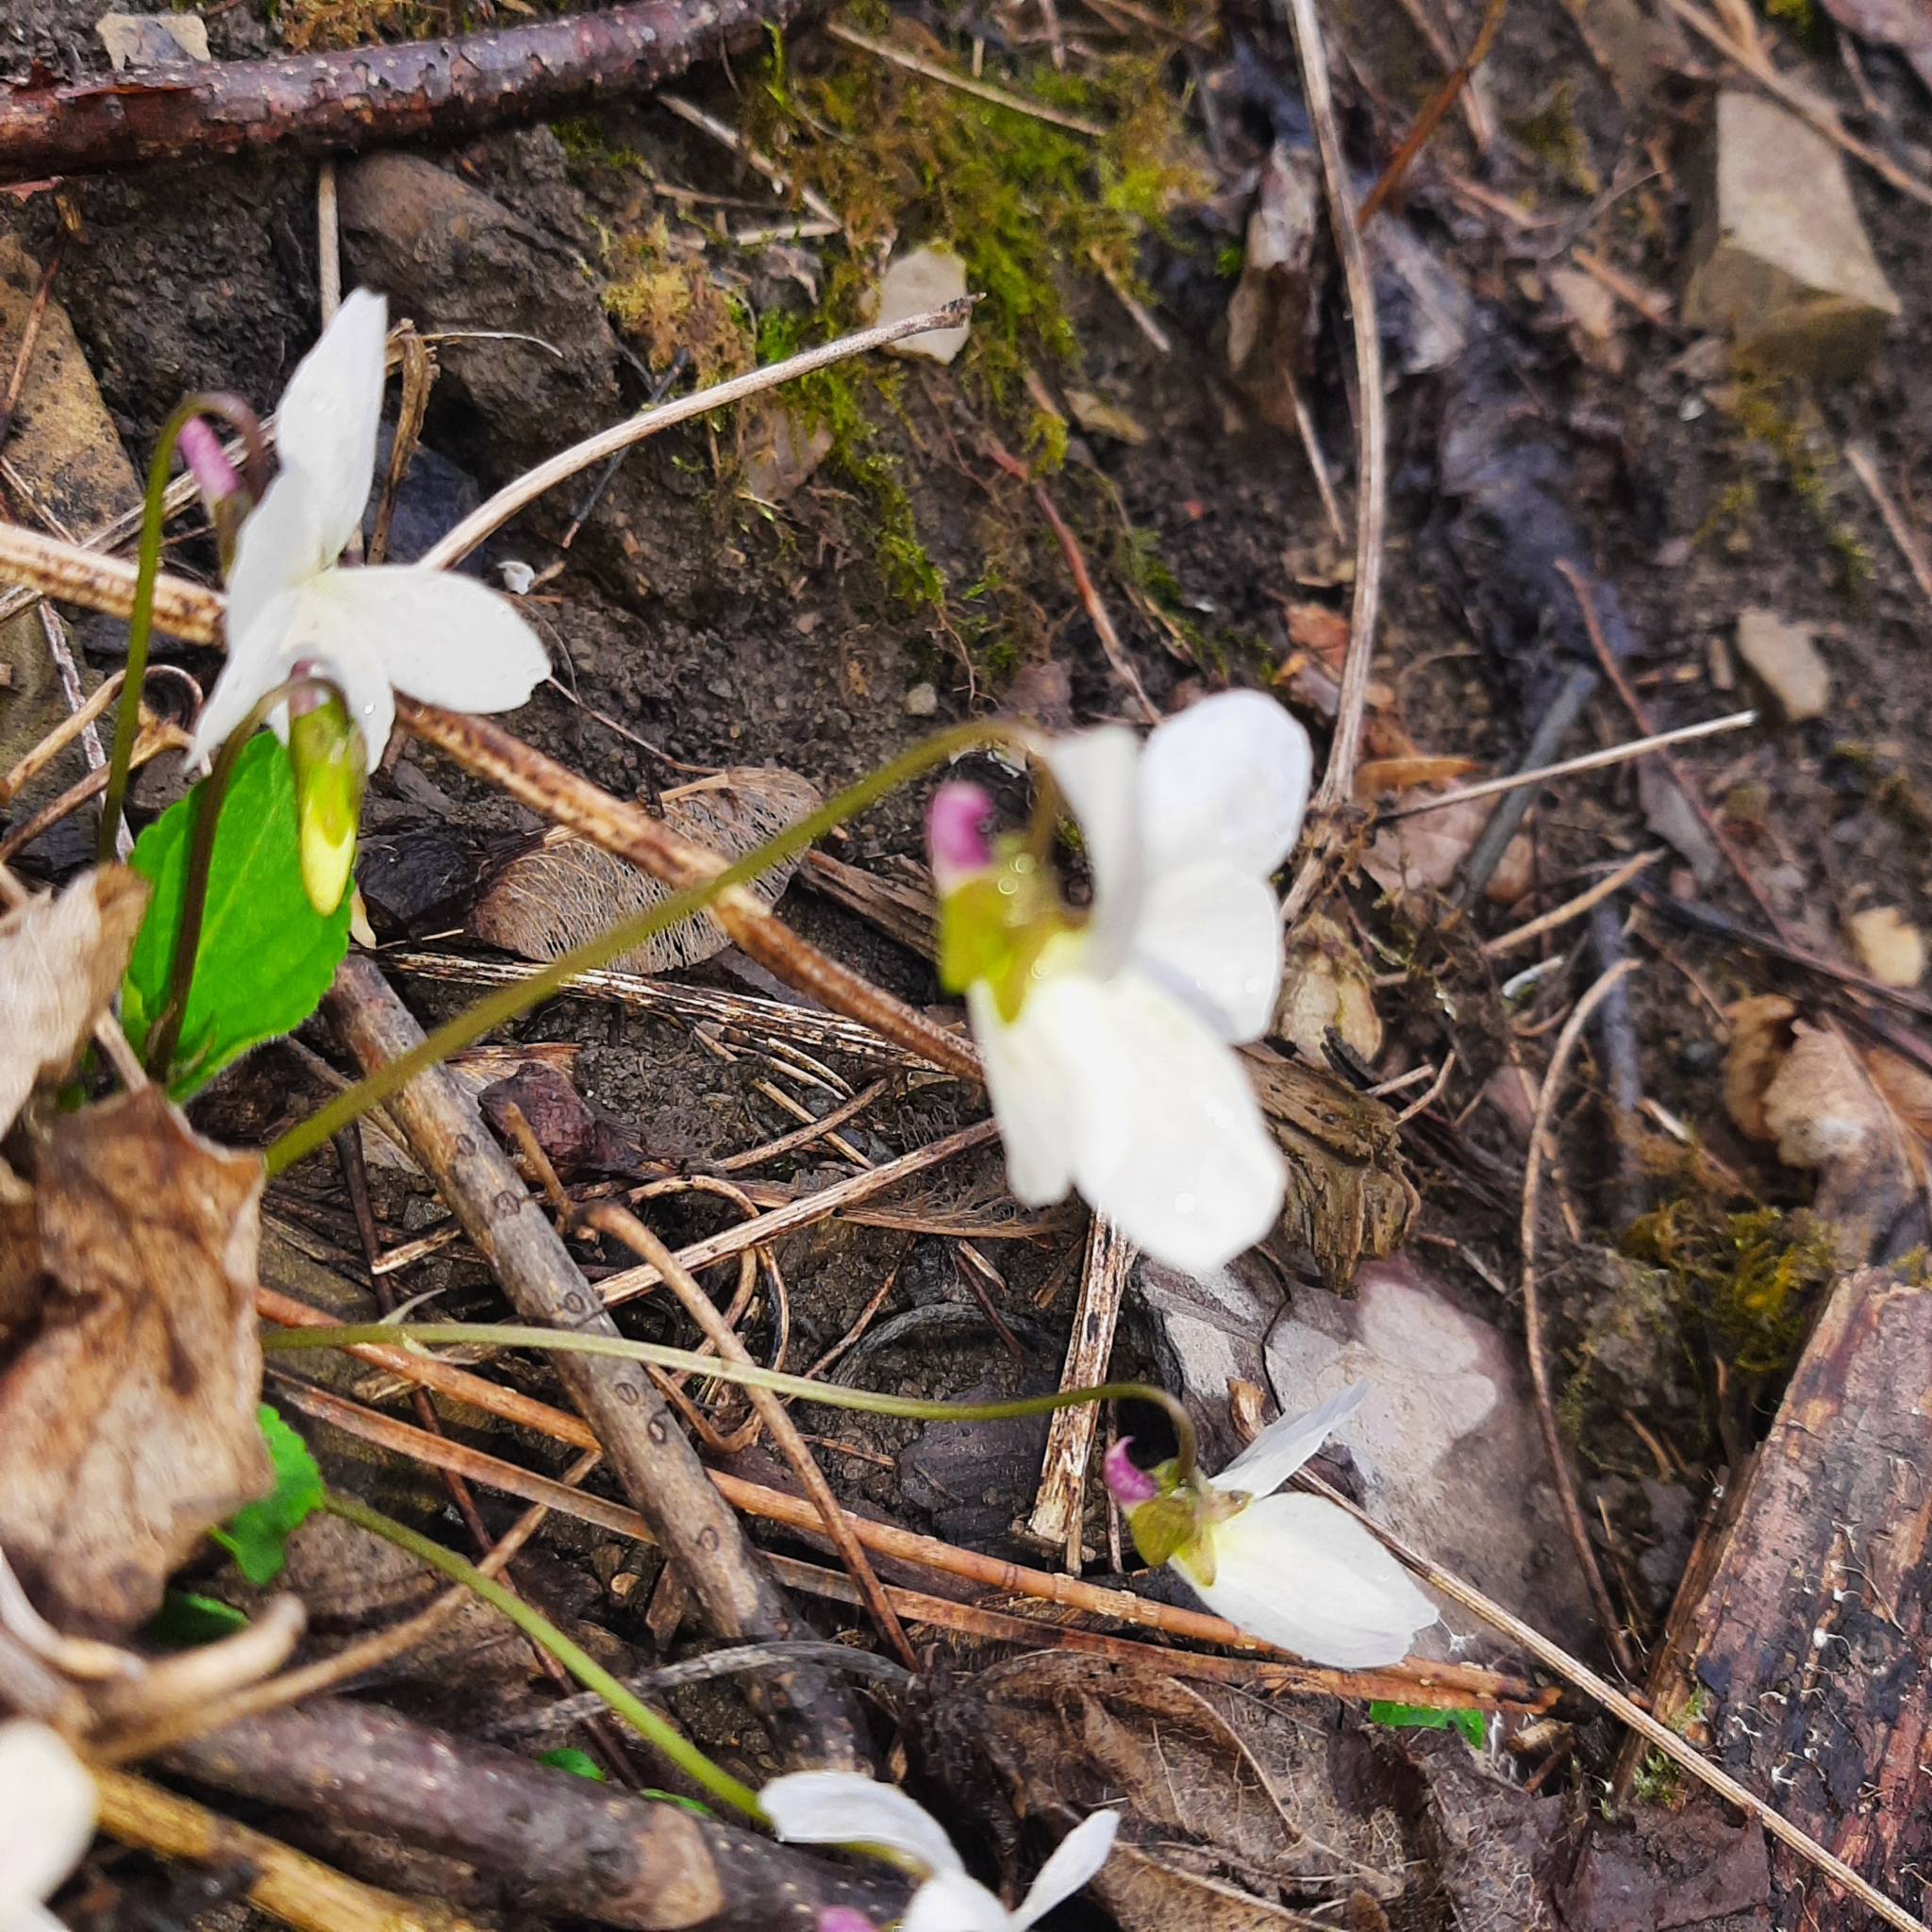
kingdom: Plantae
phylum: Tracheophyta
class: Magnoliopsida
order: Malpighiales
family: Violaceae
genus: Viola
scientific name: Viola alba
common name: White violet
